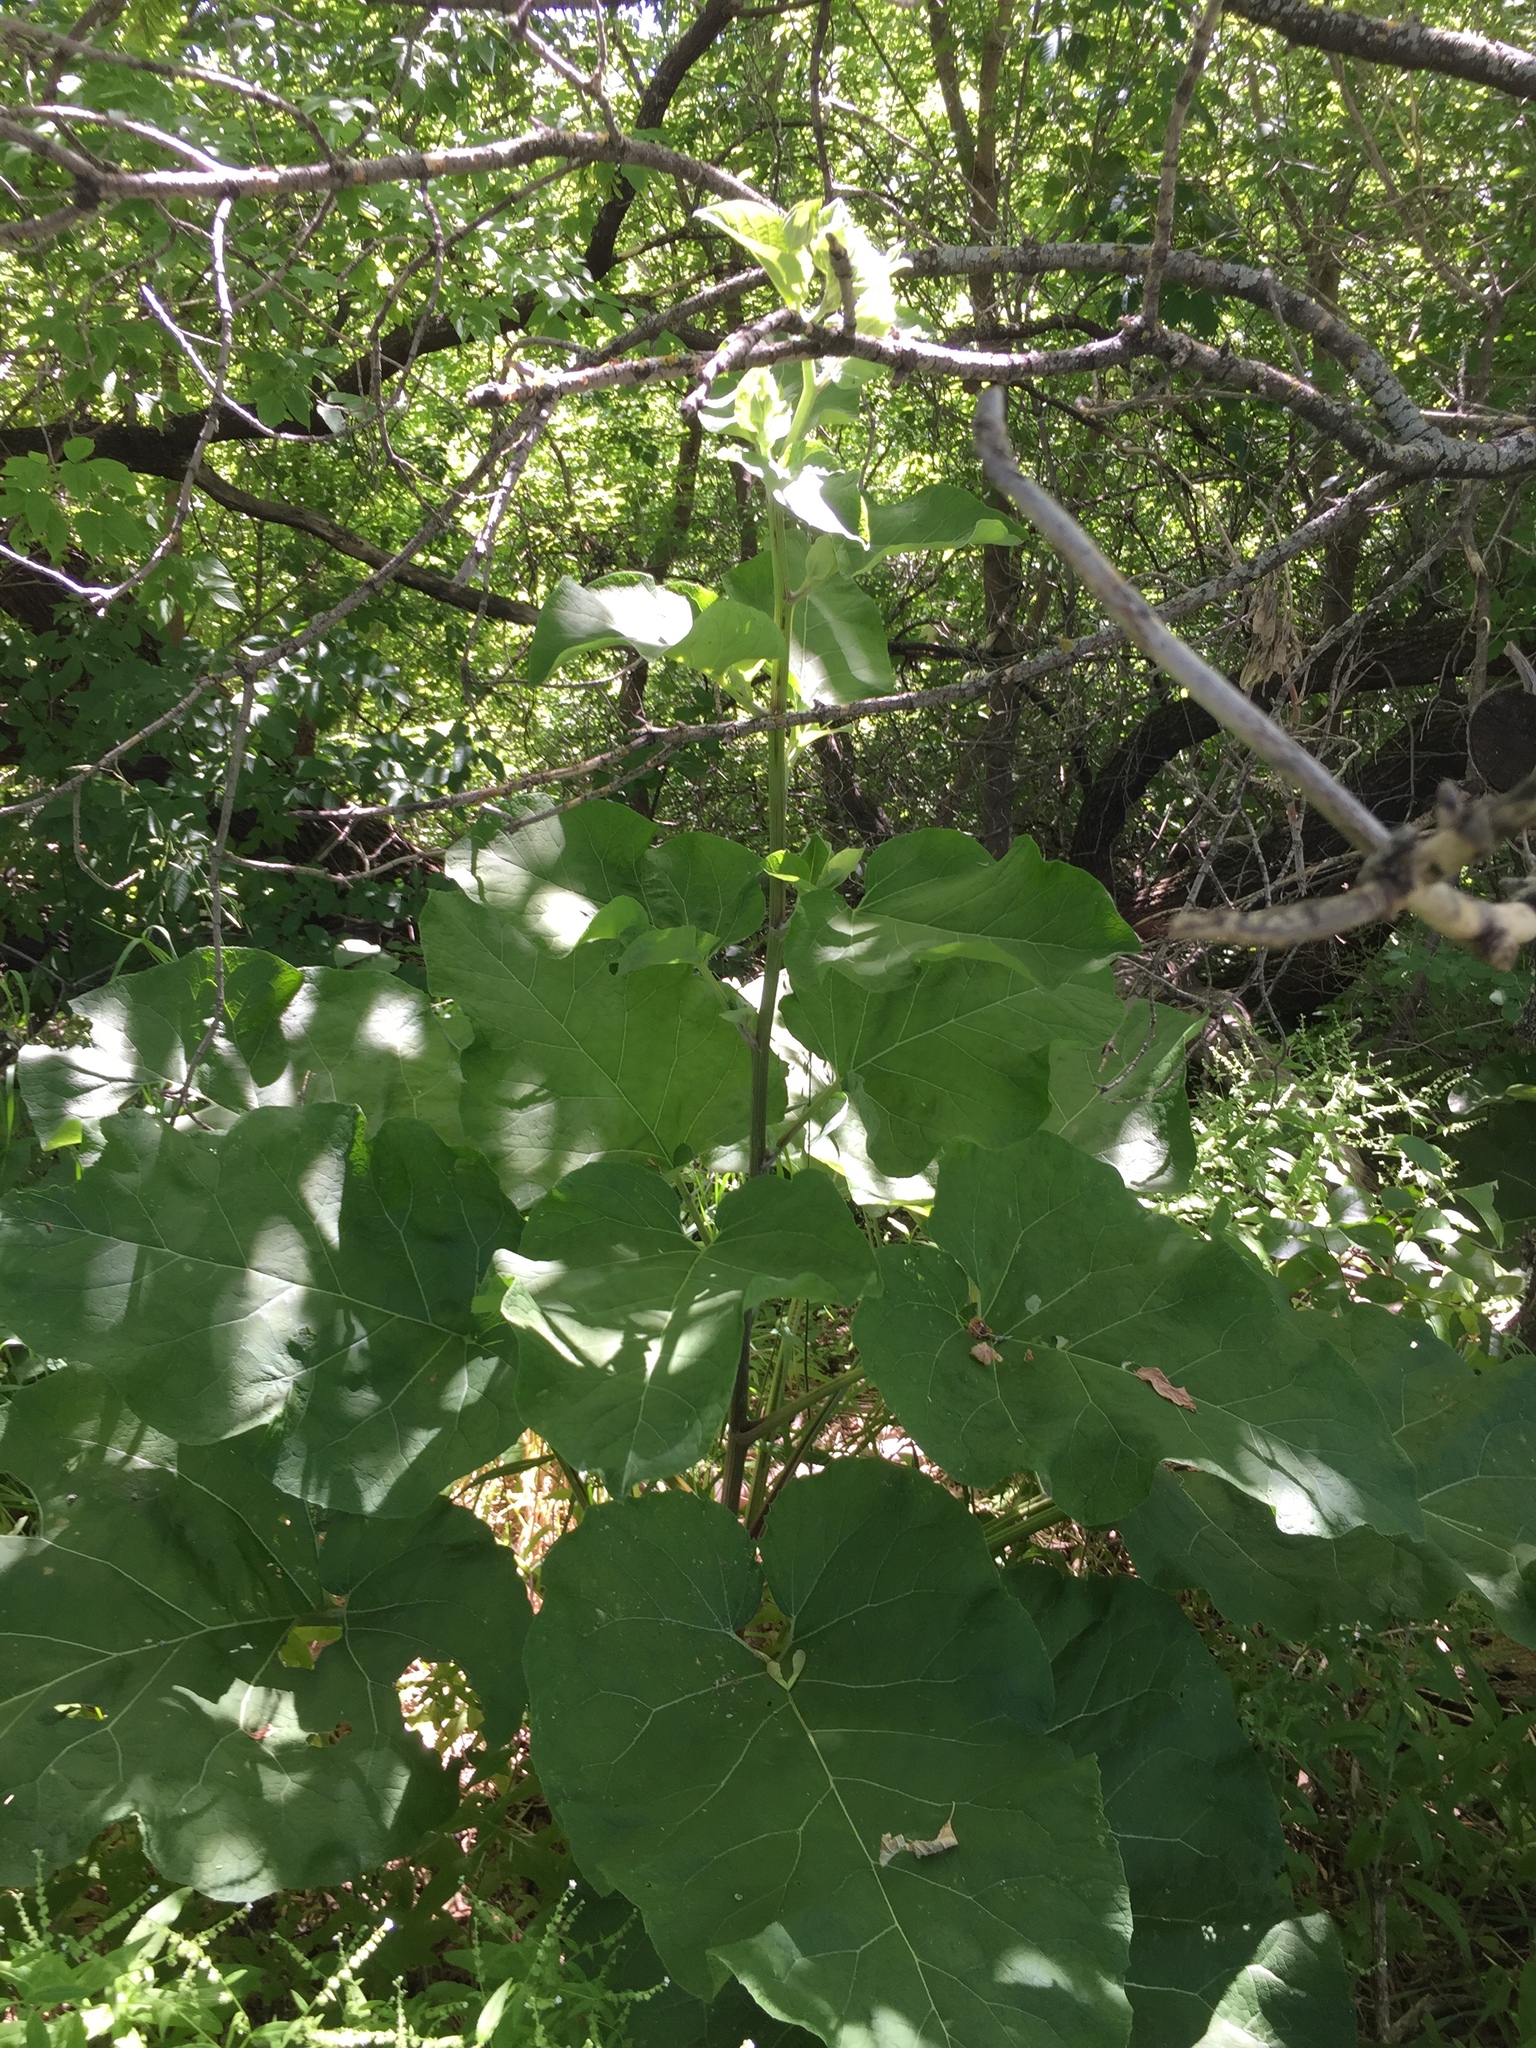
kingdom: Plantae
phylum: Tracheophyta
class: Magnoliopsida
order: Asterales
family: Asteraceae
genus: Arctium
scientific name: Arctium tomentosum
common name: Woolly burdock
